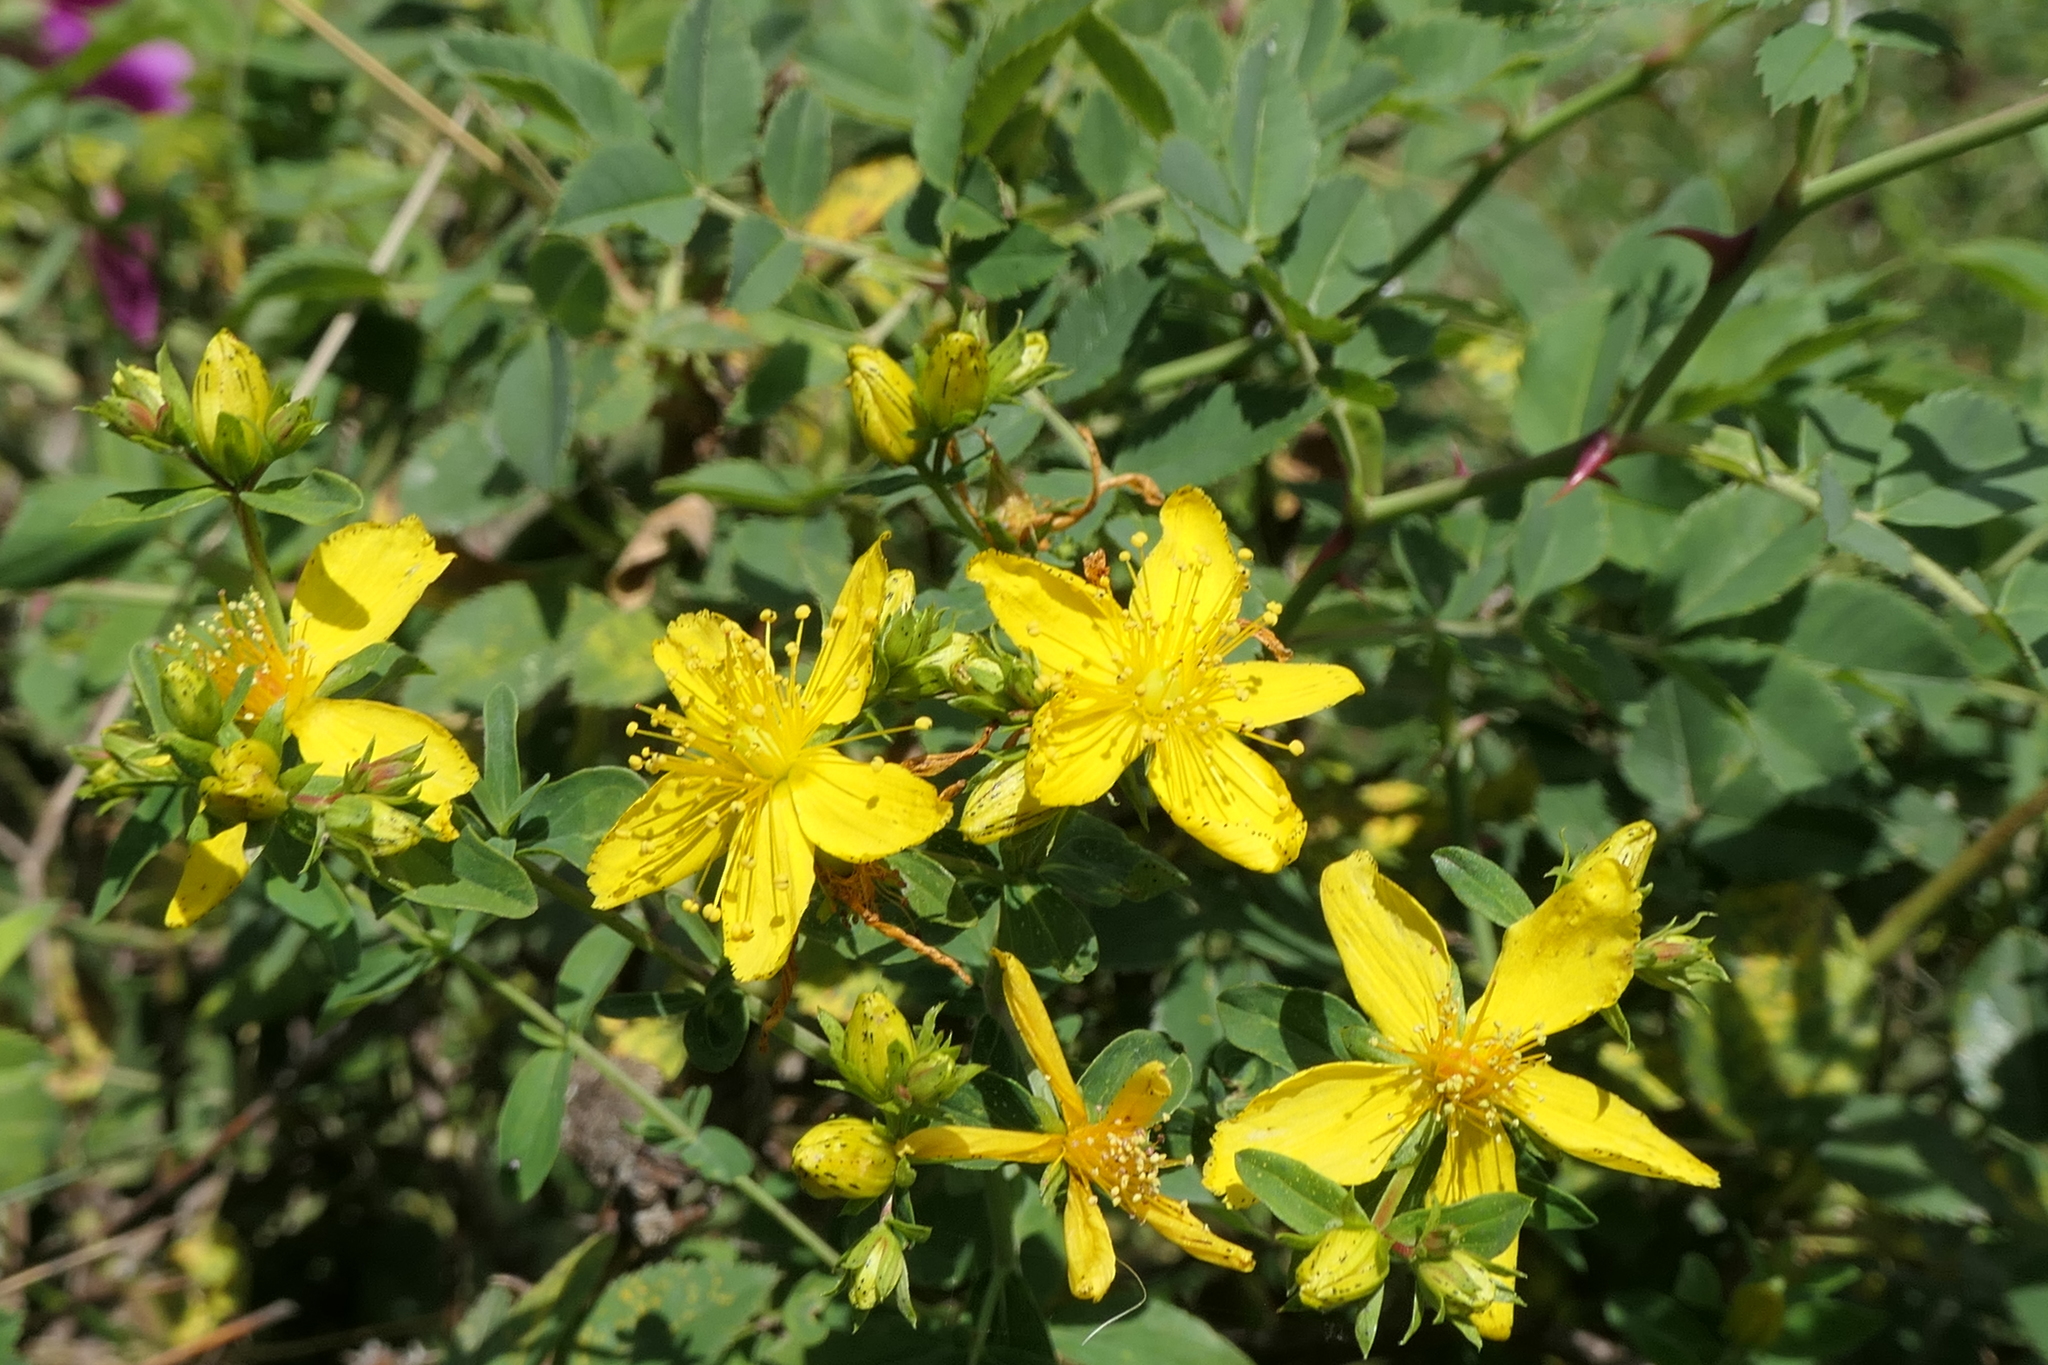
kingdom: Plantae
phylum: Tracheophyta
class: Magnoliopsida
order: Malpighiales
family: Hypericaceae
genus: Hypericum
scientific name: Hypericum perforatum
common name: Common st. johnswort
